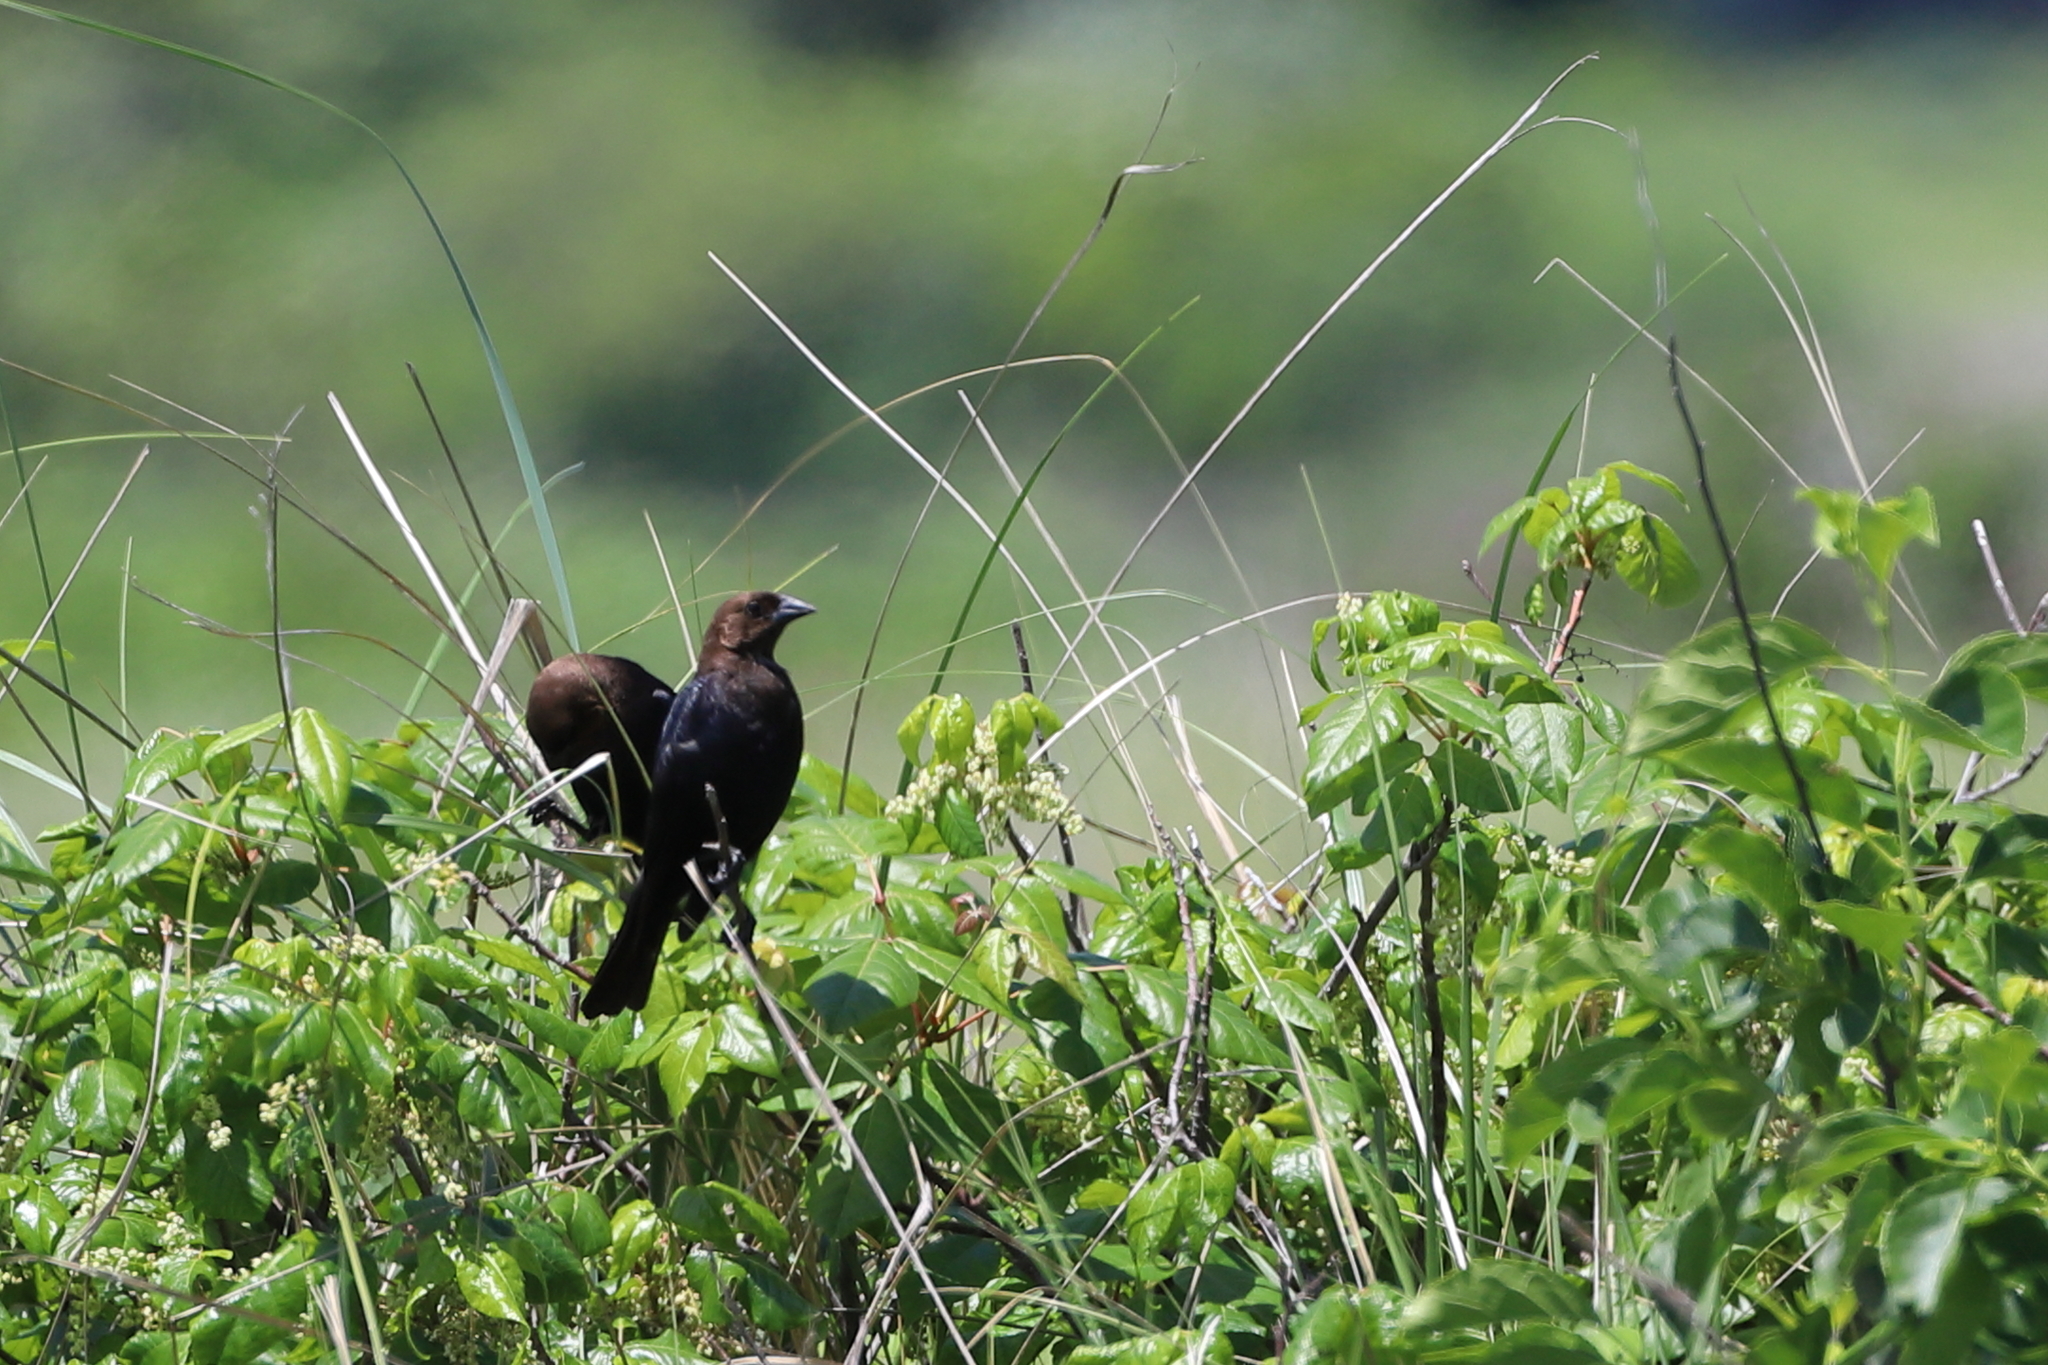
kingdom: Animalia
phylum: Chordata
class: Aves
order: Passeriformes
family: Icteridae
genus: Molothrus
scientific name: Molothrus ater
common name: Brown-headed cowbird
